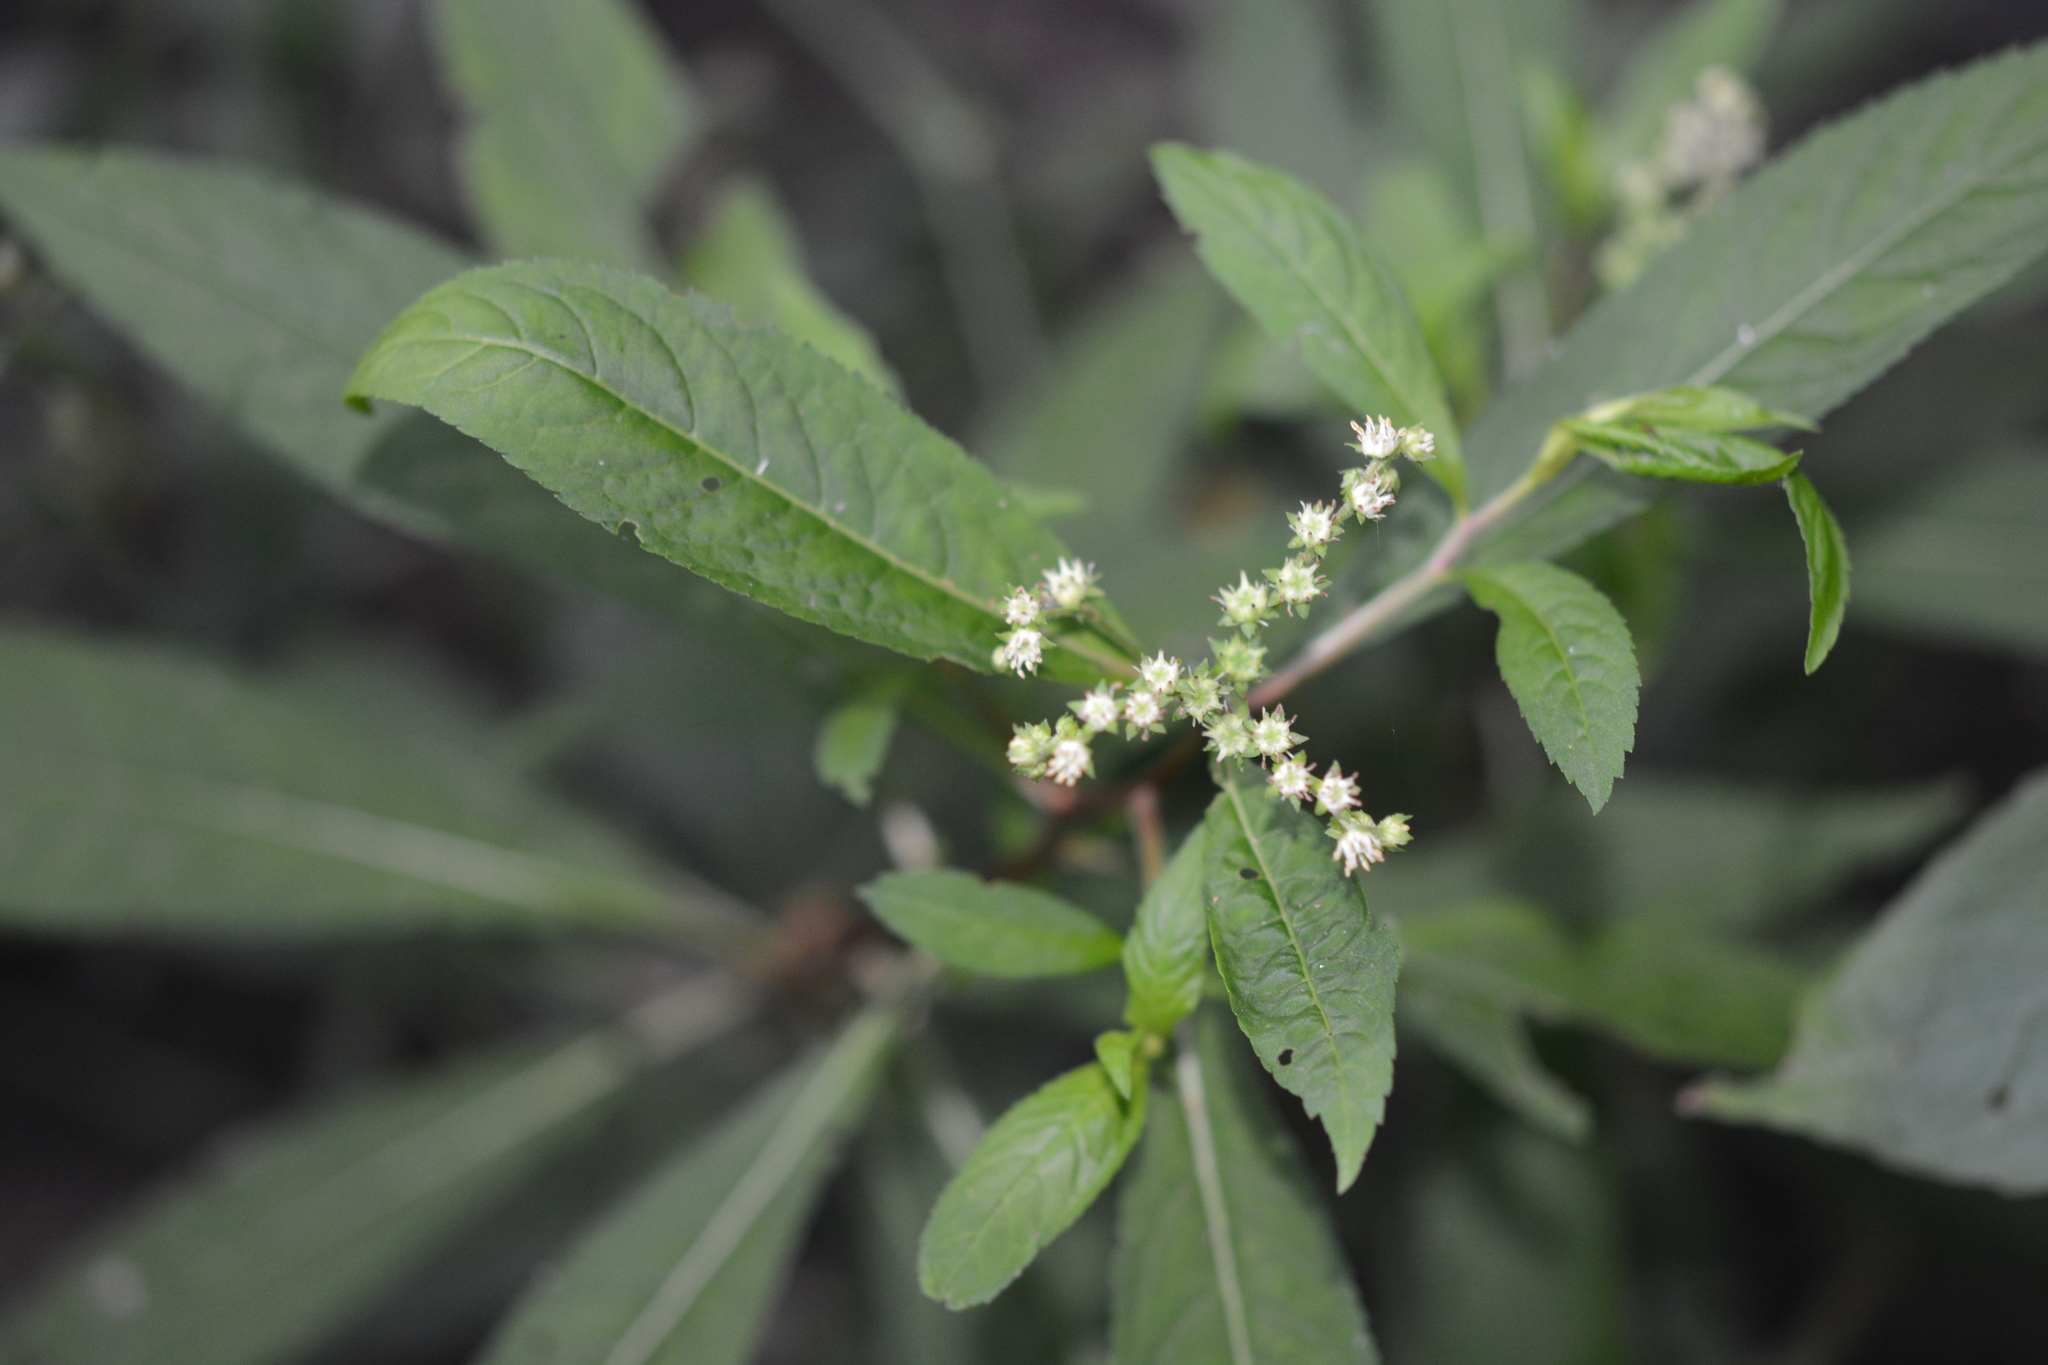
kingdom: Plantae
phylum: Tracheophyta
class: Magnoliopsida
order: Saxifragales
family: Penthoraceae
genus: Penthorum
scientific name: Penthorum sedoides
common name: Ditch stonecrop
